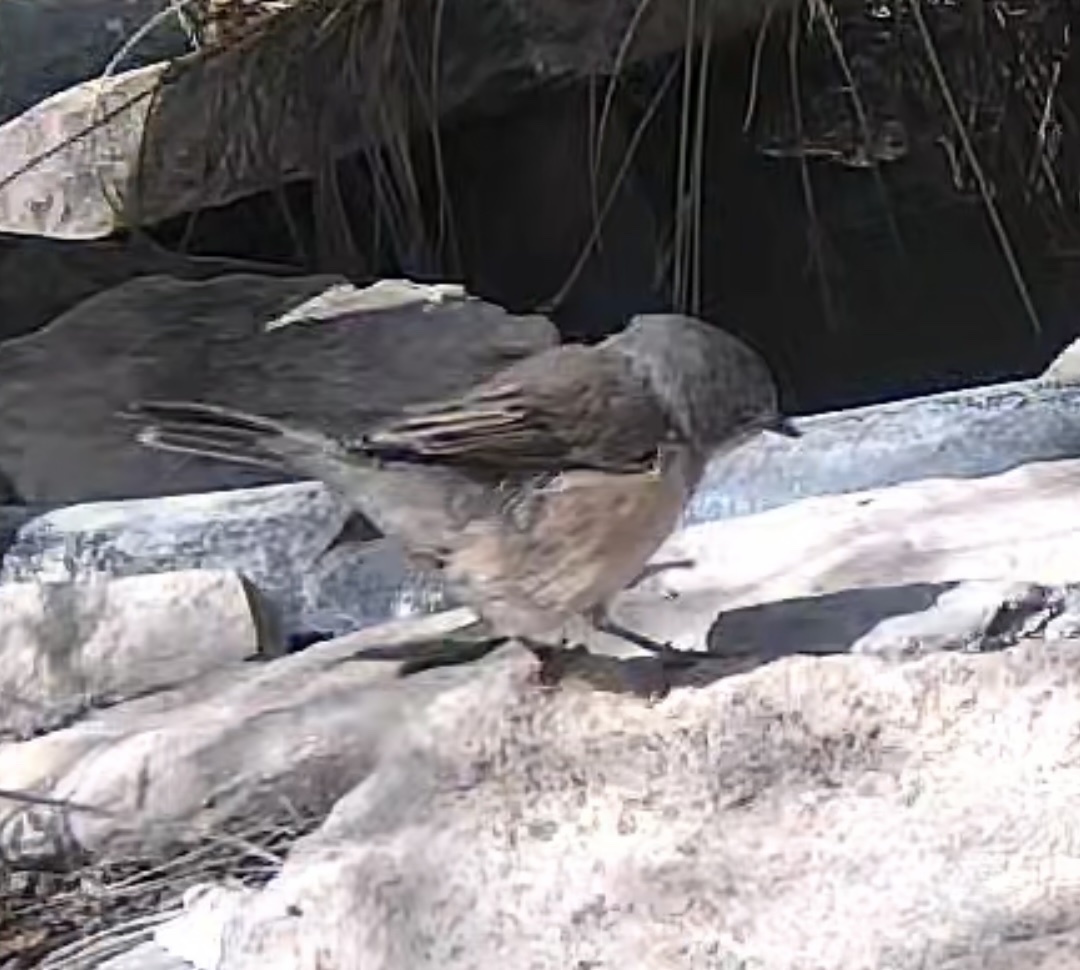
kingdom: Animalia
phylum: Chordata
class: Aves
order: Passeriformes
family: Sylviidae
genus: Curruca
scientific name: Curruca iberiae
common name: Western subalpine warbler
